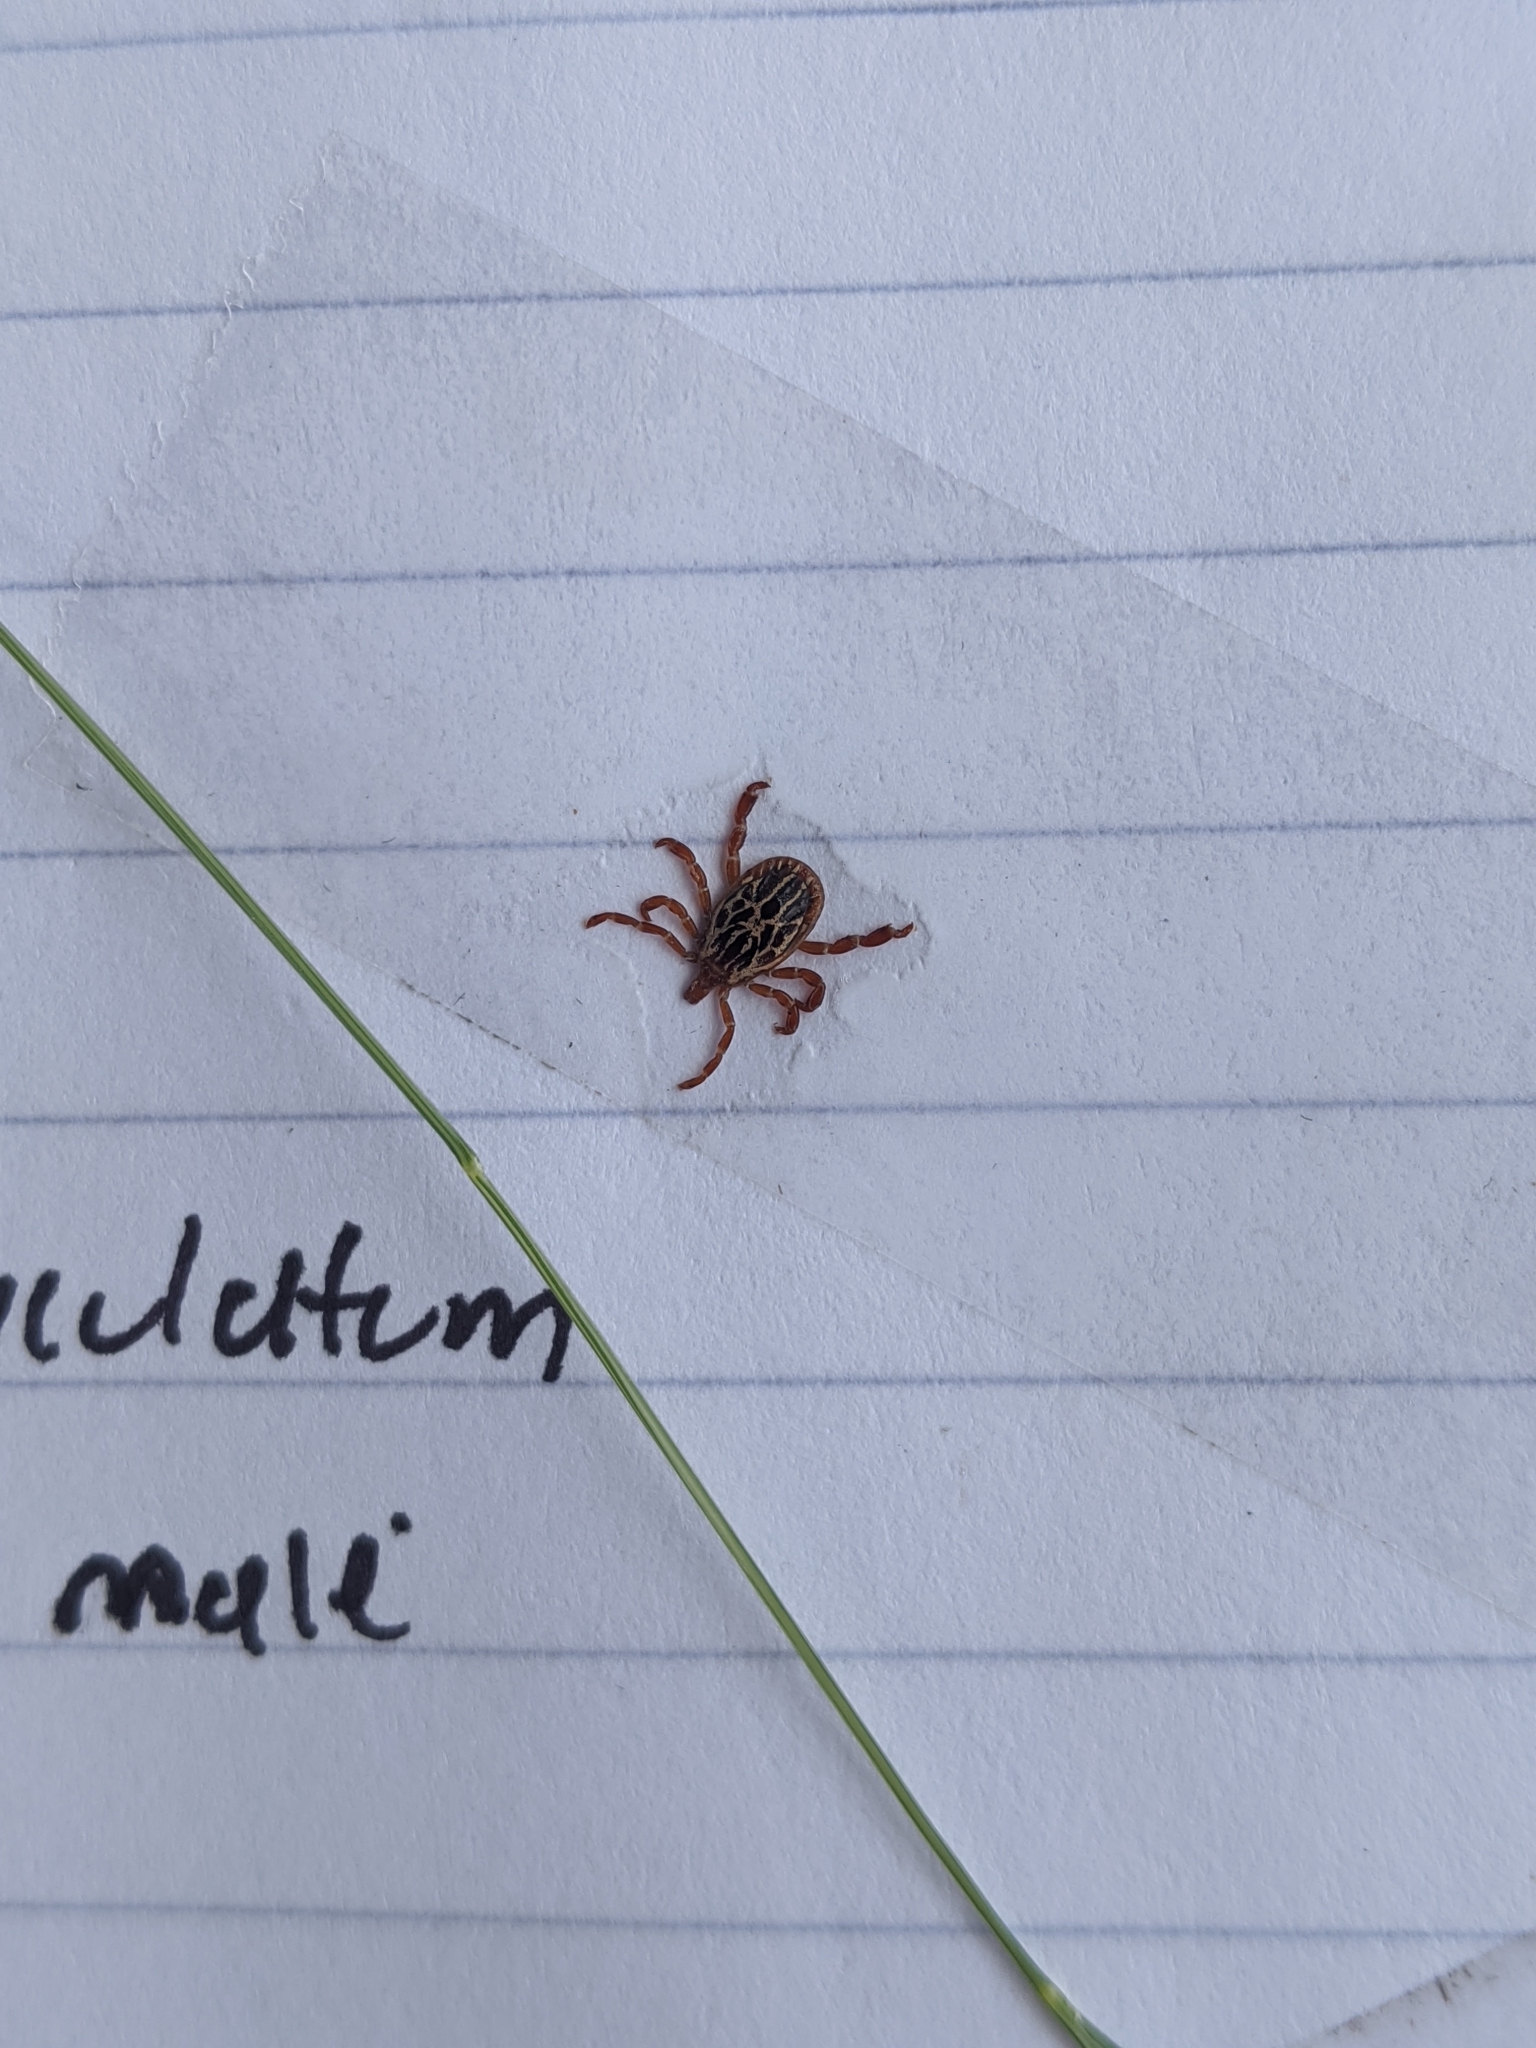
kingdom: Animalia
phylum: Arthropoda
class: Arachnida
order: Ixodida
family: Ixodidae
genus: Amblyomma
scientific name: Amblyomma maculatum
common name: Gulf coast tick
